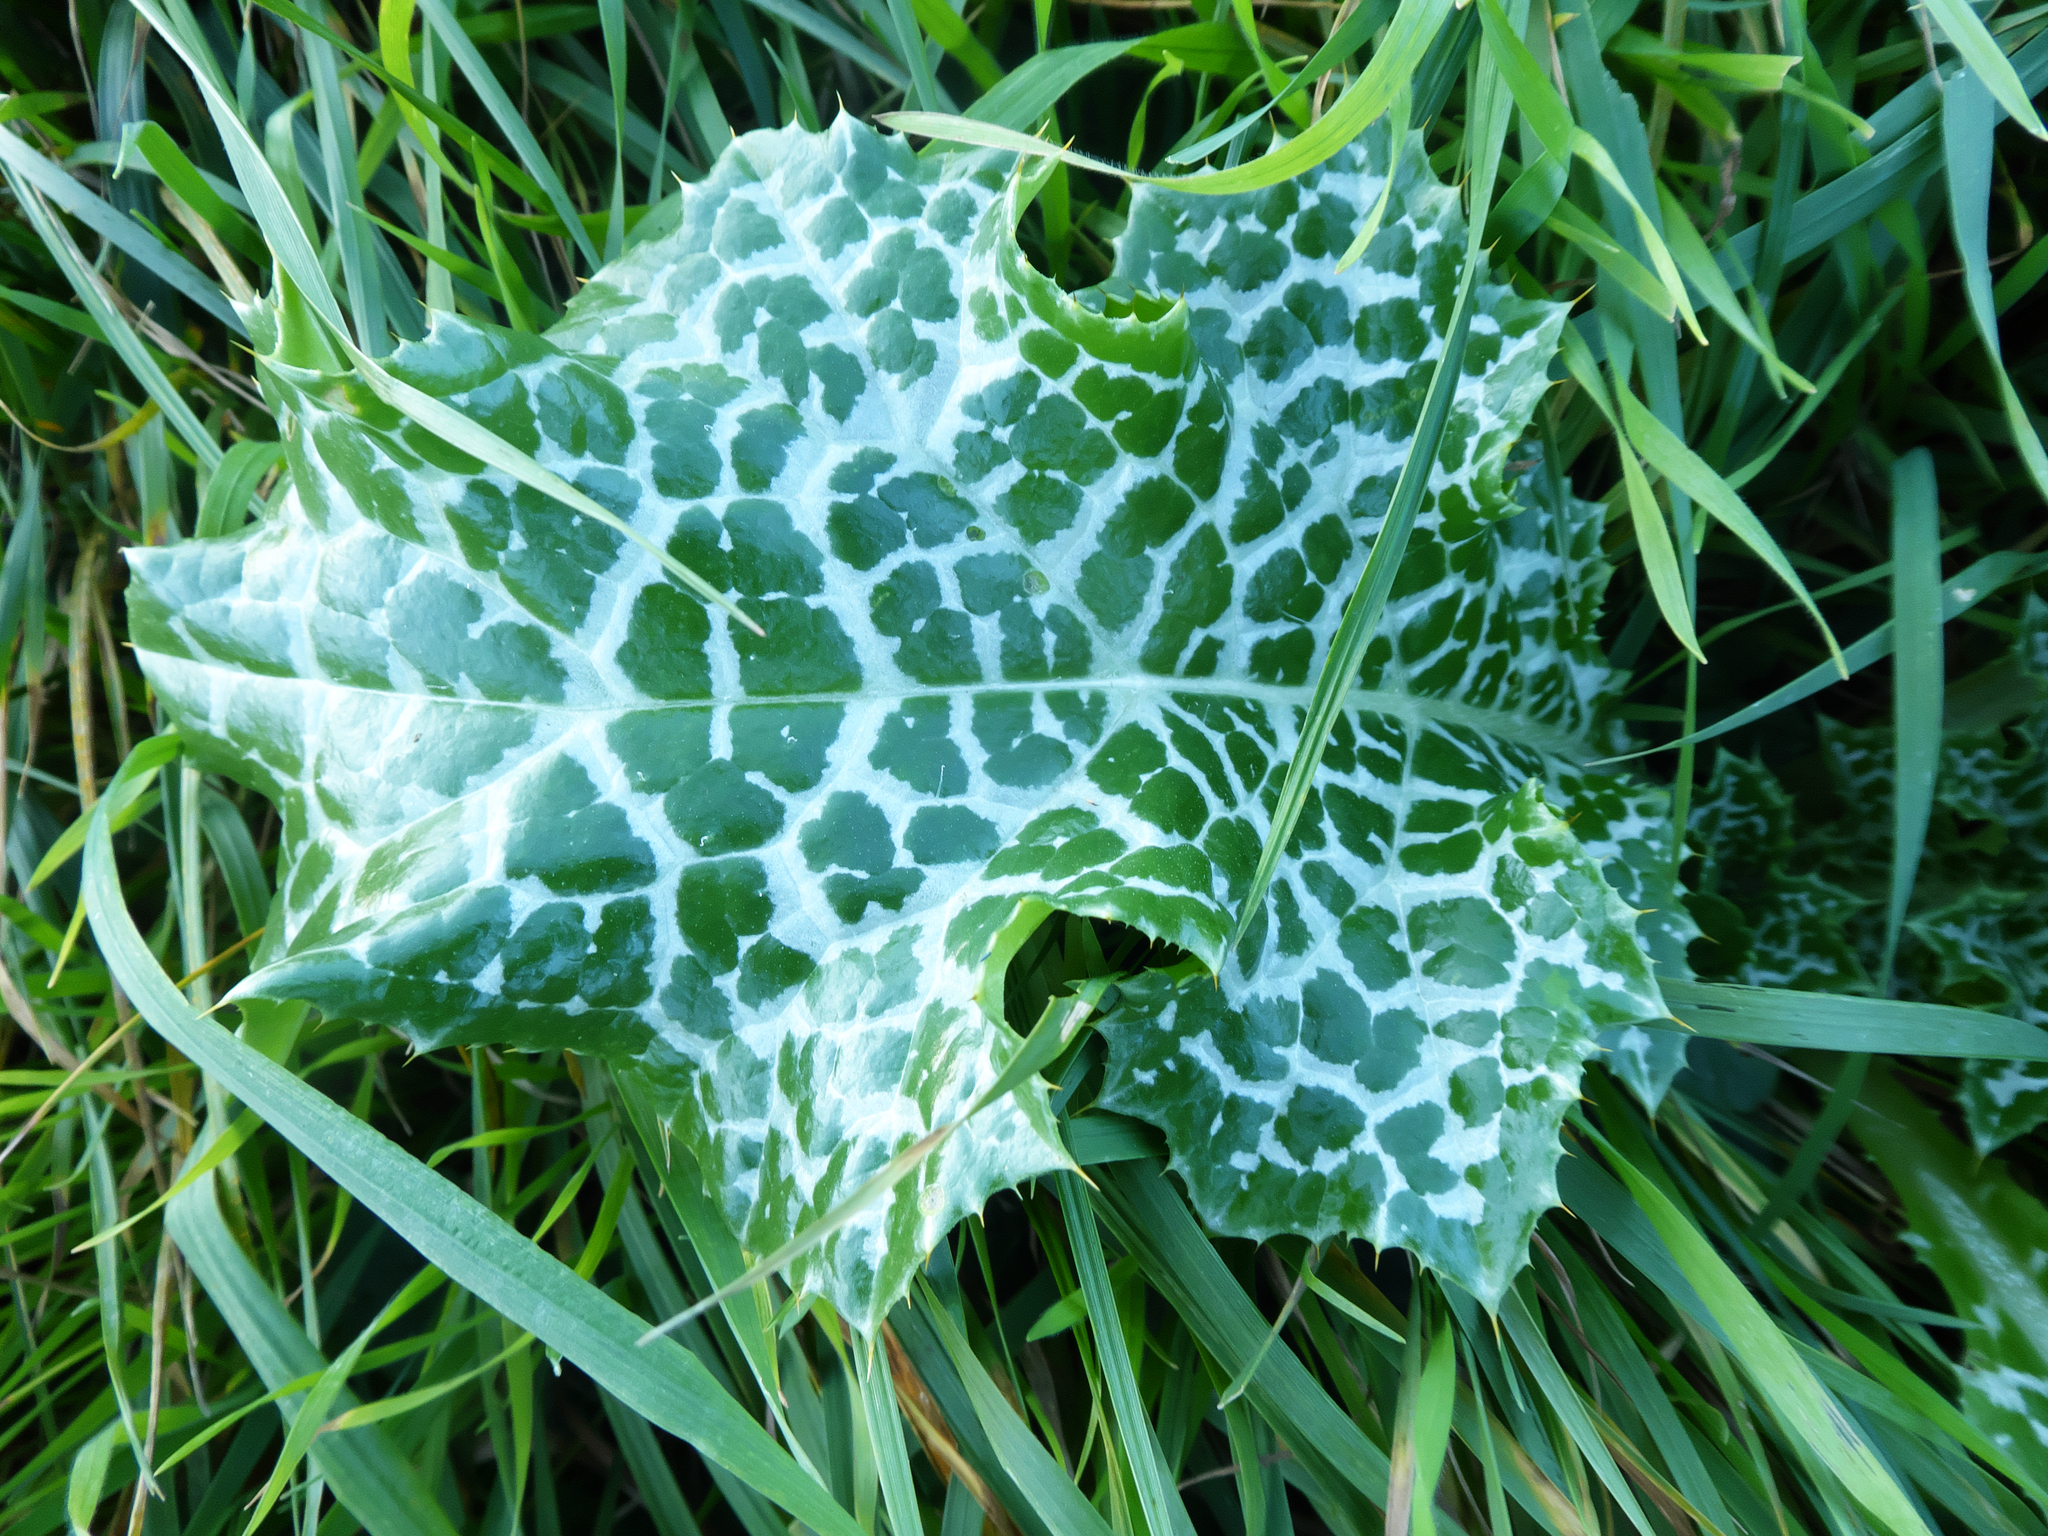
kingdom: Plantae
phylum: Tracheophyta
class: Magnoliopsida
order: Asterales
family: Asteraceae
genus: Silybum
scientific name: Silybum marianum
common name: Milk thistle
